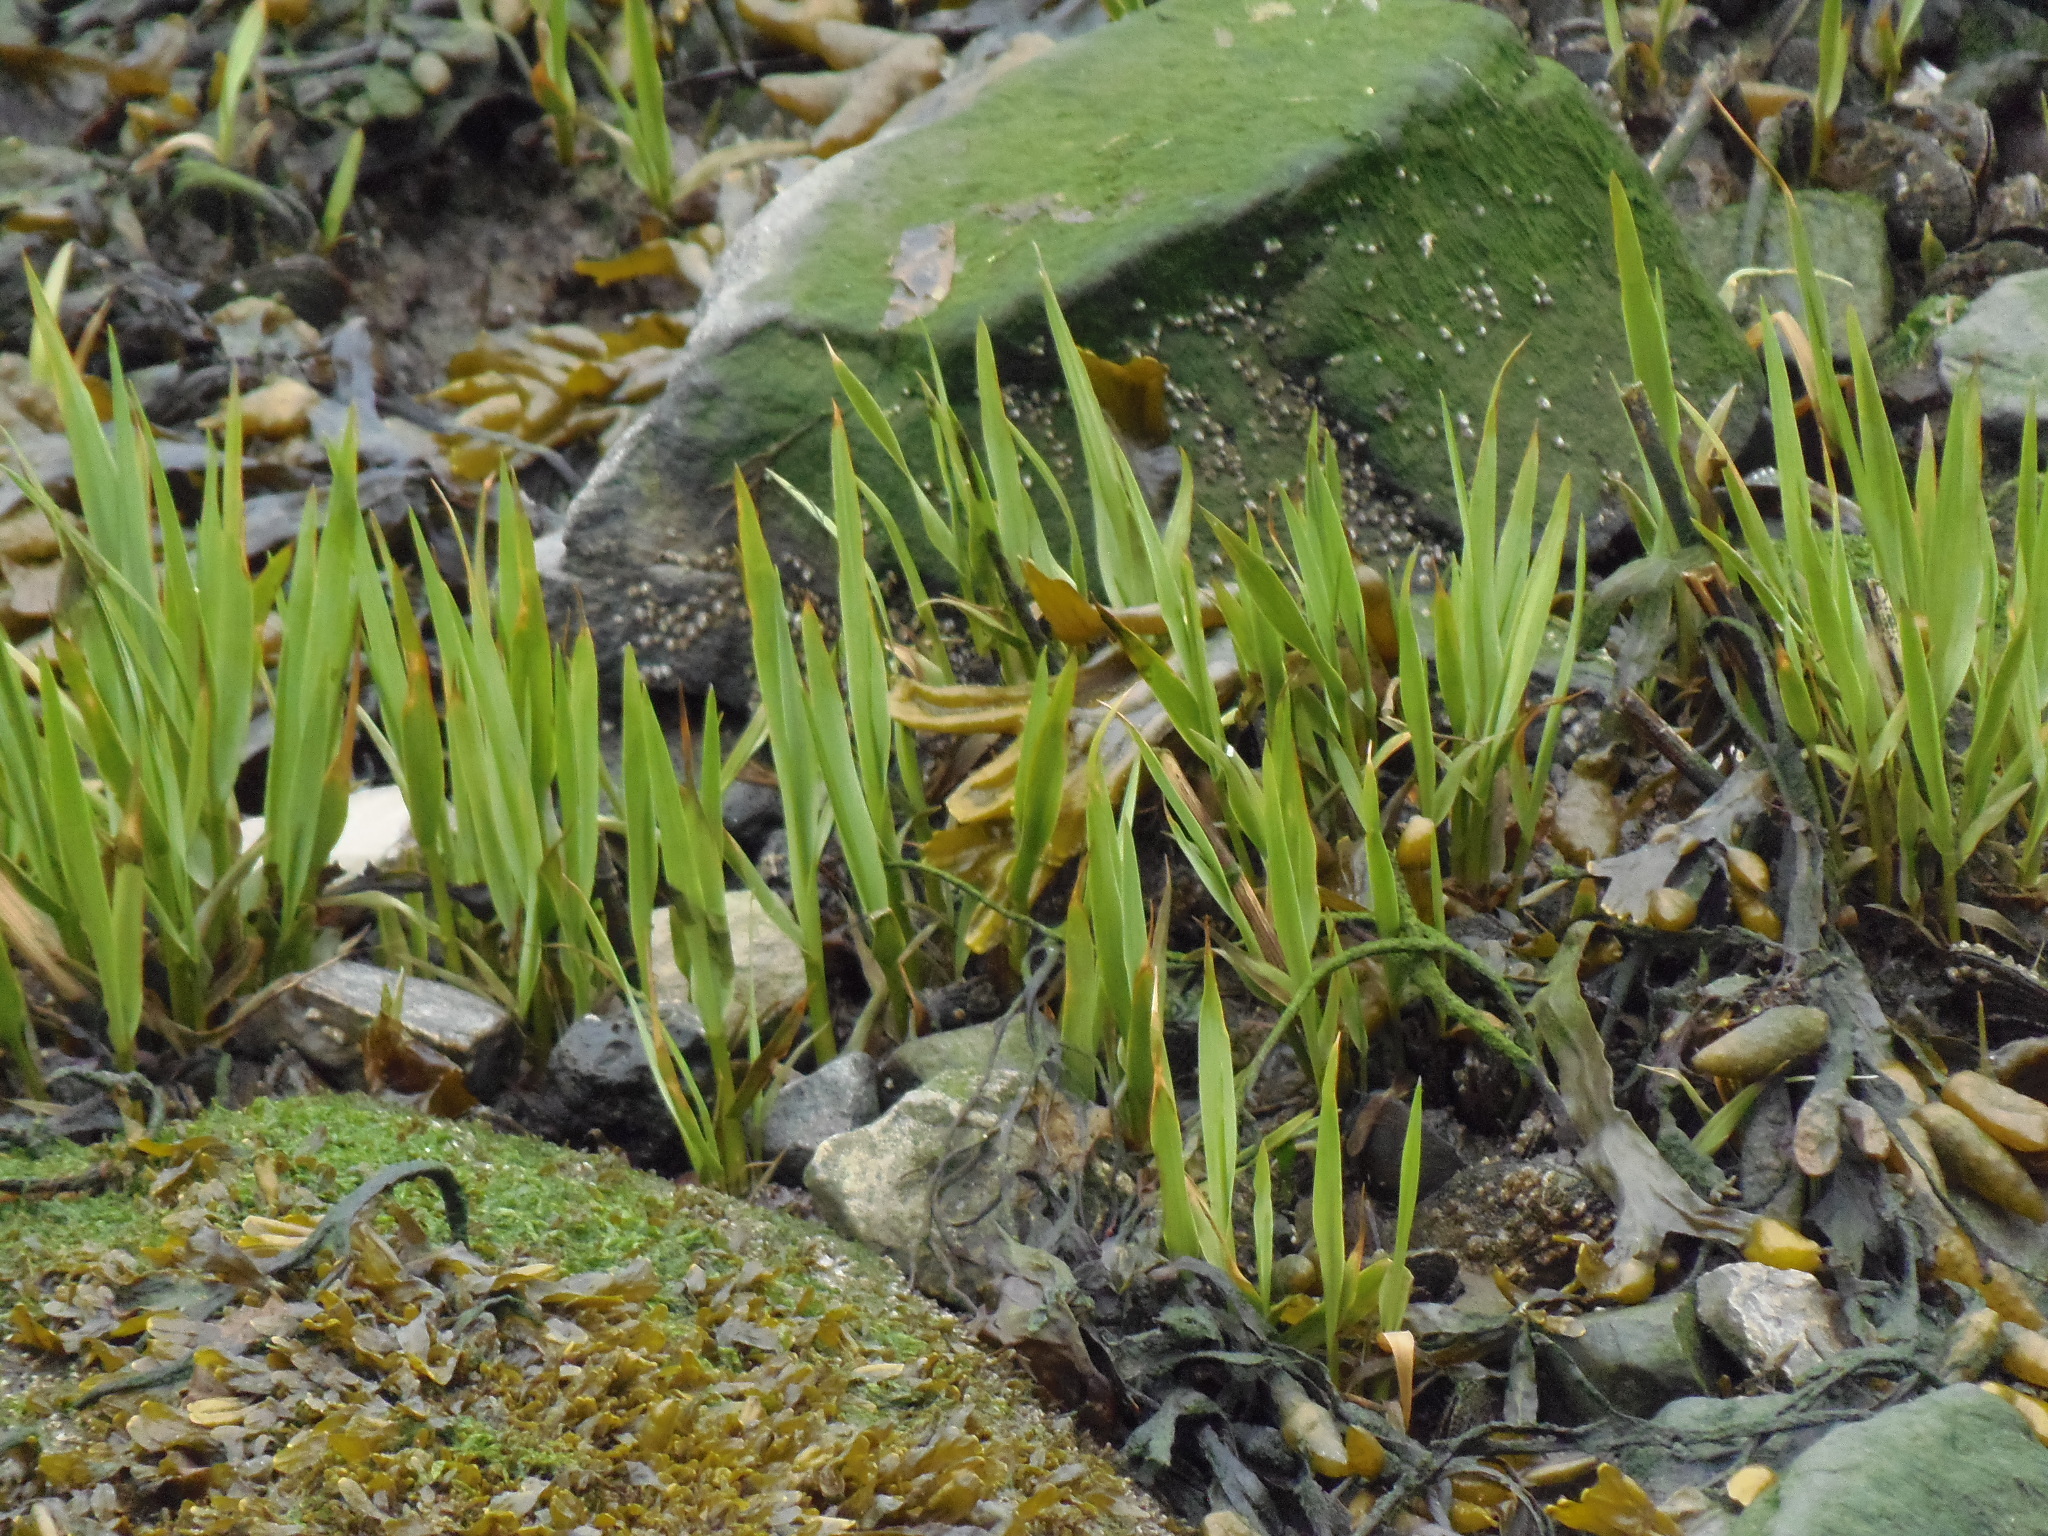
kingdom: Plantae
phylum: Tracheophyta
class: Liliopsida
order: Poales
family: Poaceae
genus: Sporobolus
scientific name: Sporobolus alterniflorus
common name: Atlantic cordgrass
